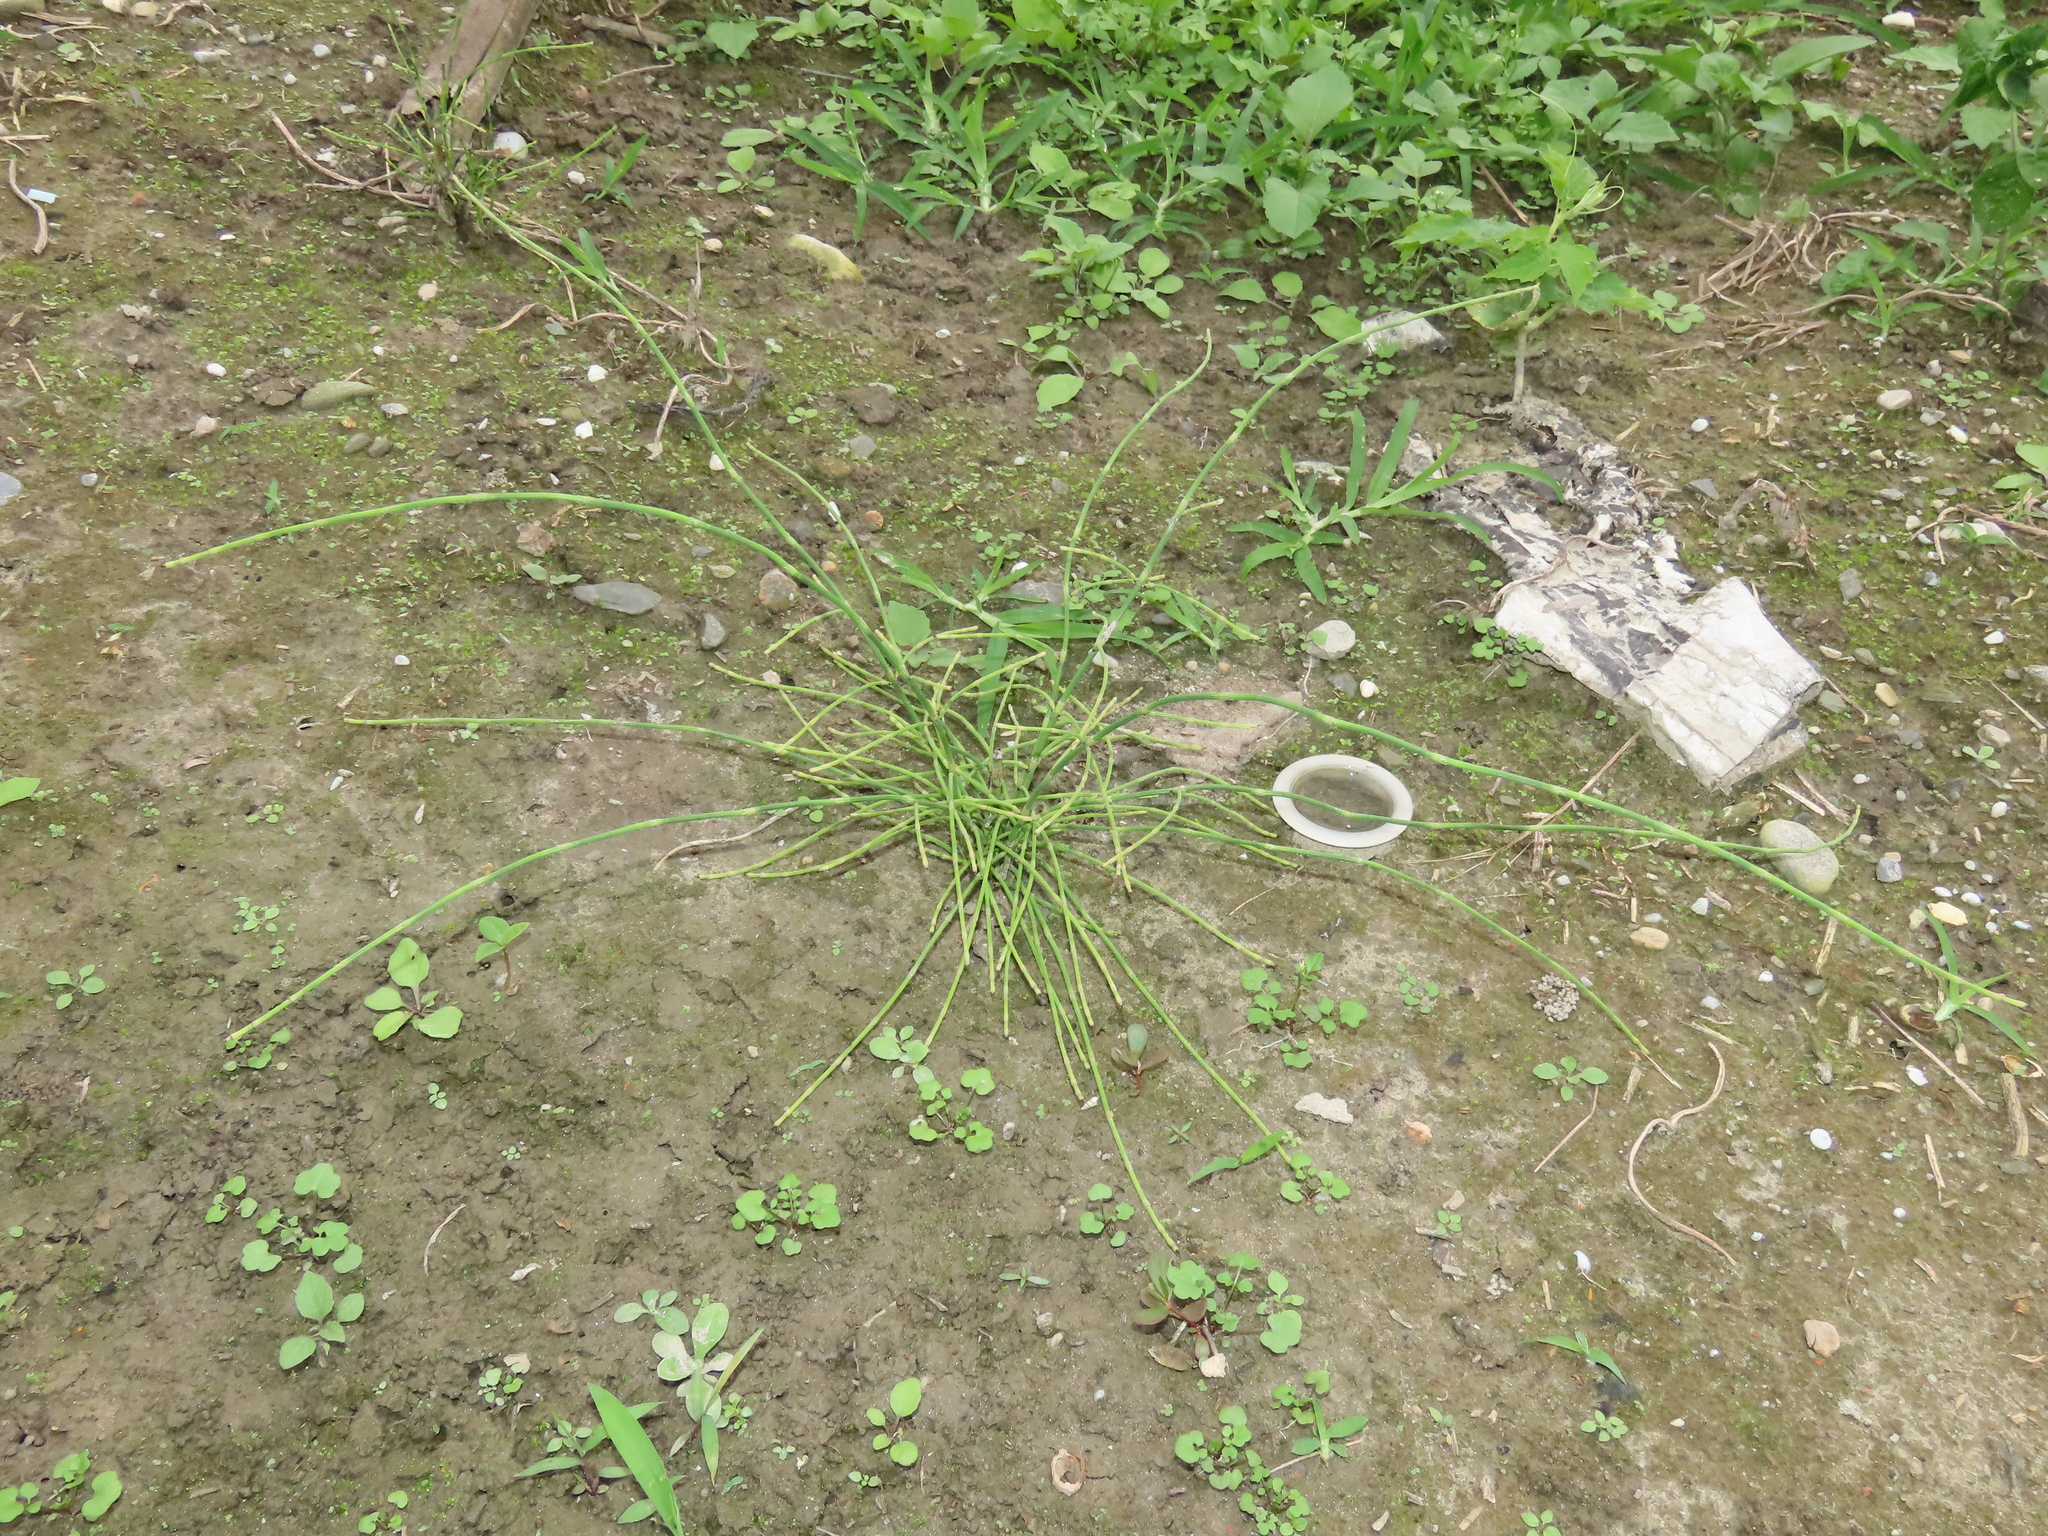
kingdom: Plantae
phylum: Tracheophyta
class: Polypodiopsida
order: Equisetales
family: Equisetaceae
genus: Equisetum
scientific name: Equisetum ramosissimum
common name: Branched horsetail
